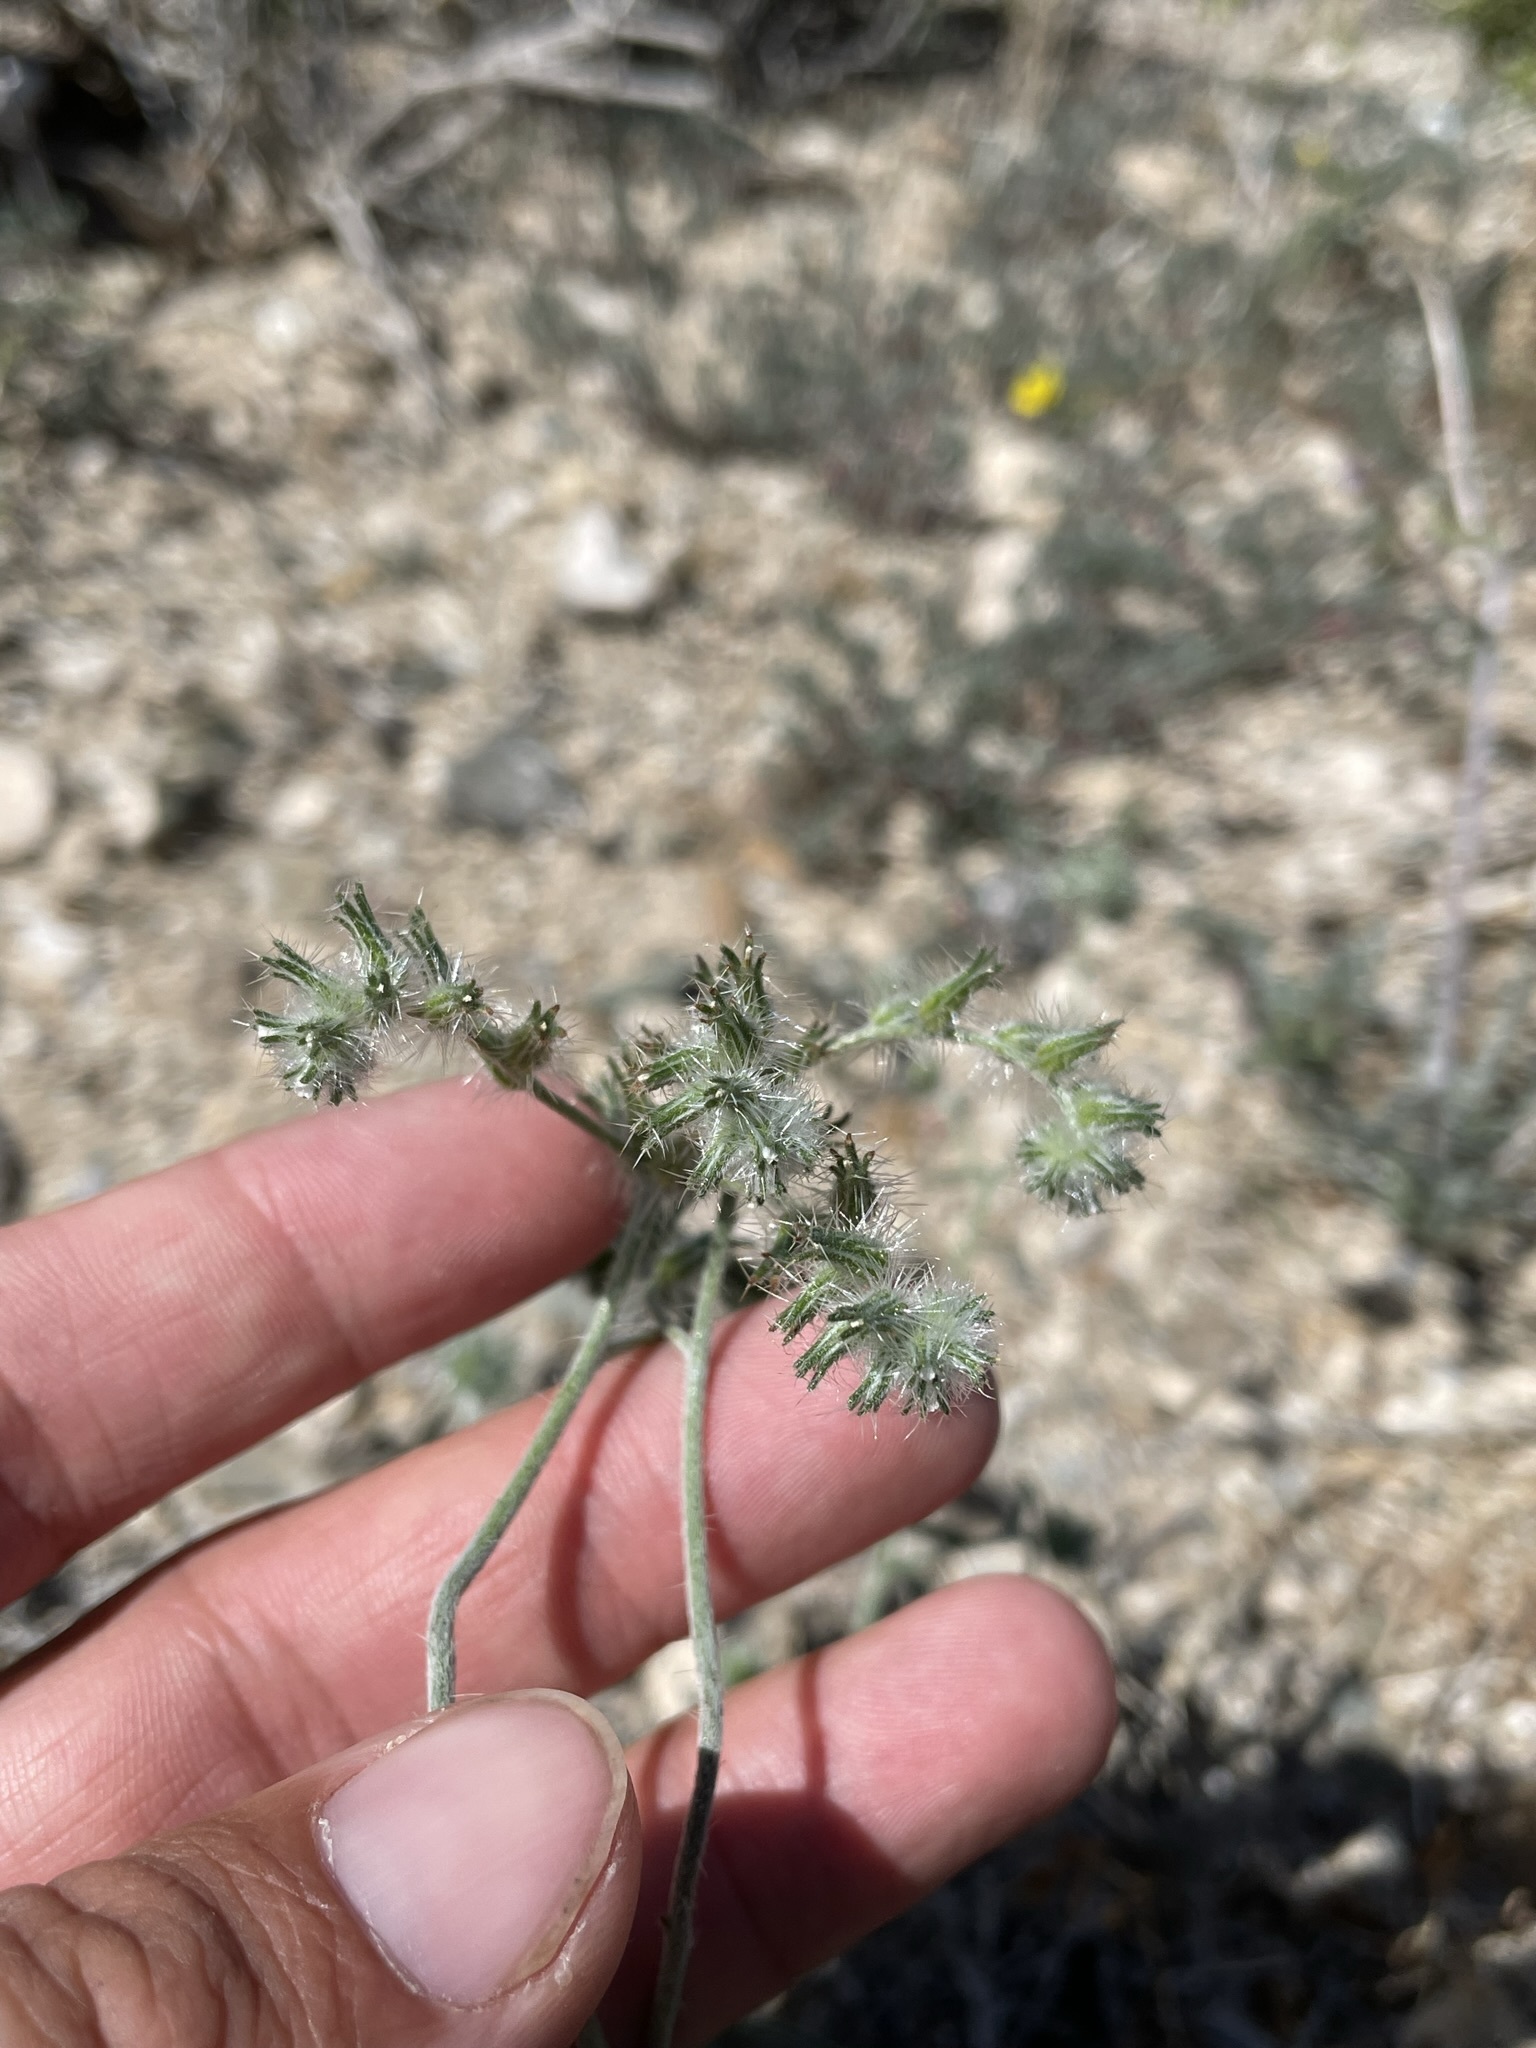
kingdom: Plantae
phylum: Tracheophyta
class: Magnoliopsida
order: Boraginales
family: Boraginaceae
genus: Cryptantha
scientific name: Cryptantha nevadensis
